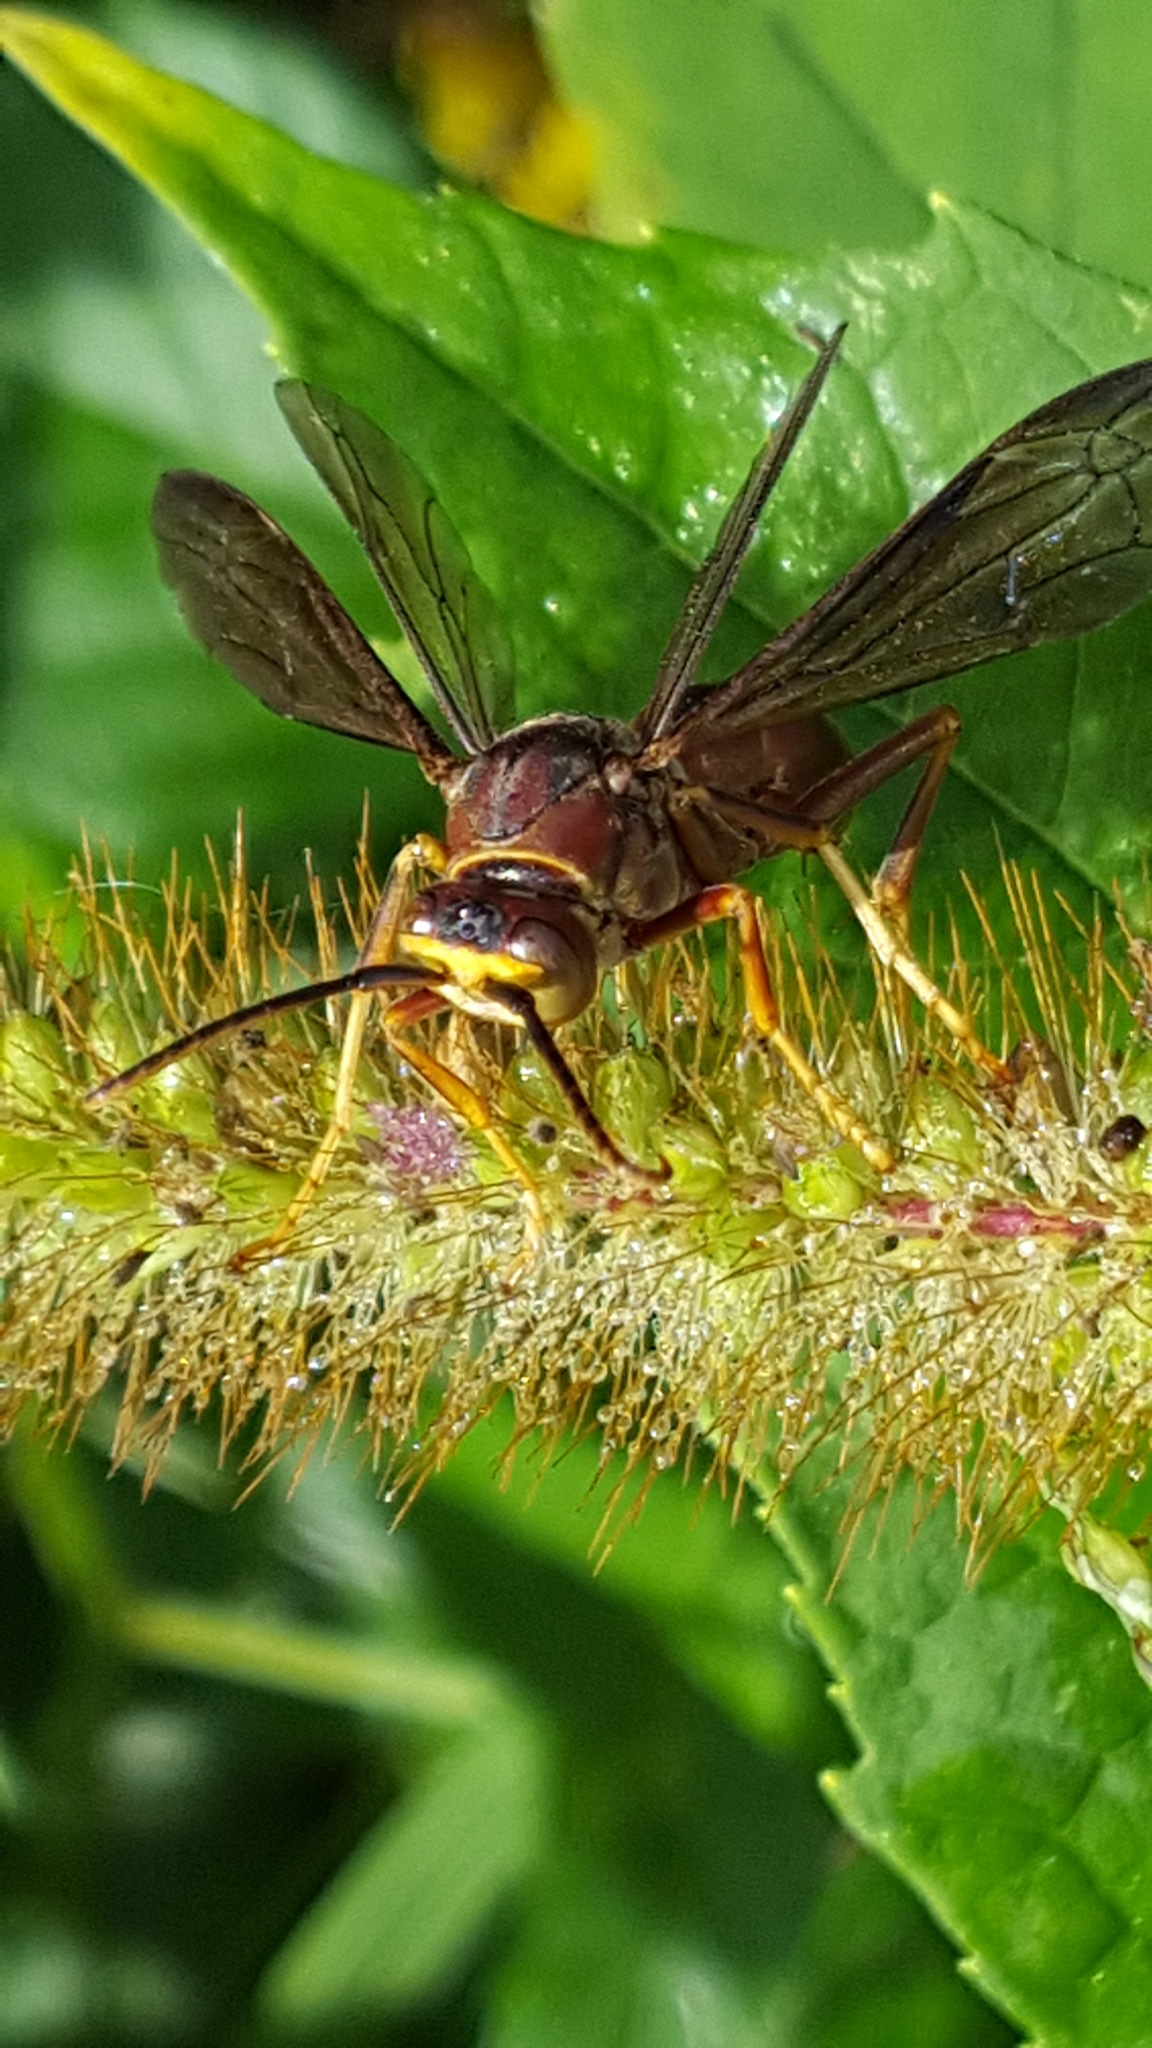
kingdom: Animalia
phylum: Arthropoda
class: Insecta
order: Hymenoptera
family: Eumenidae
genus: Polistes
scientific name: Polistes fuscatus
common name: Dark paper wasp
